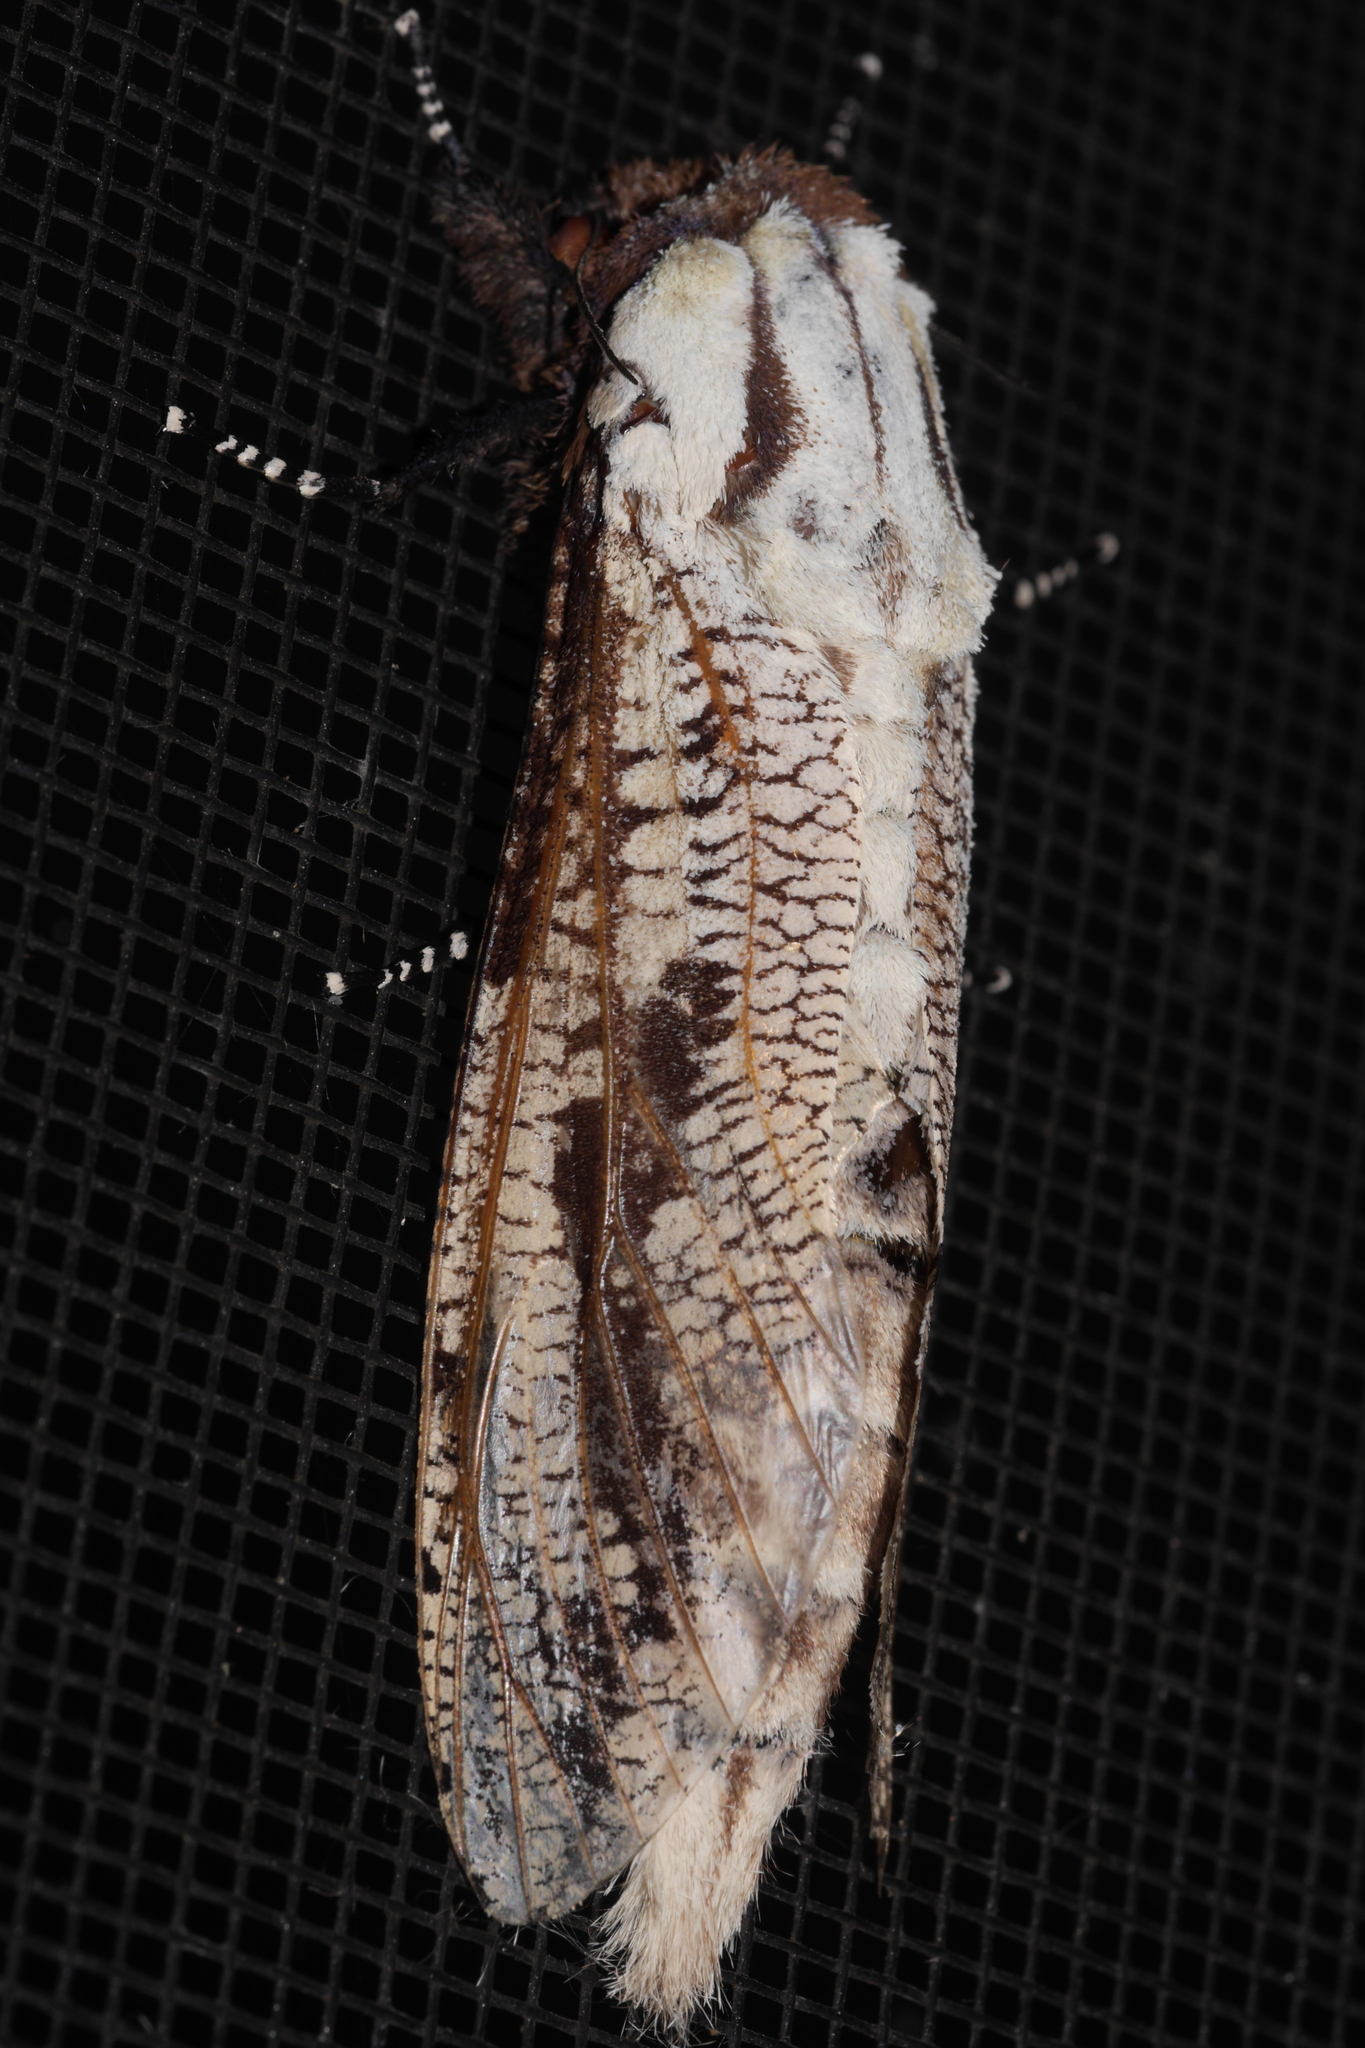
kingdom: Animalia
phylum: Arthropoda
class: Insecta
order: Lepidoptera
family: Cossidae
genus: Morpheis
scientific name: Morpheis pyracmon
